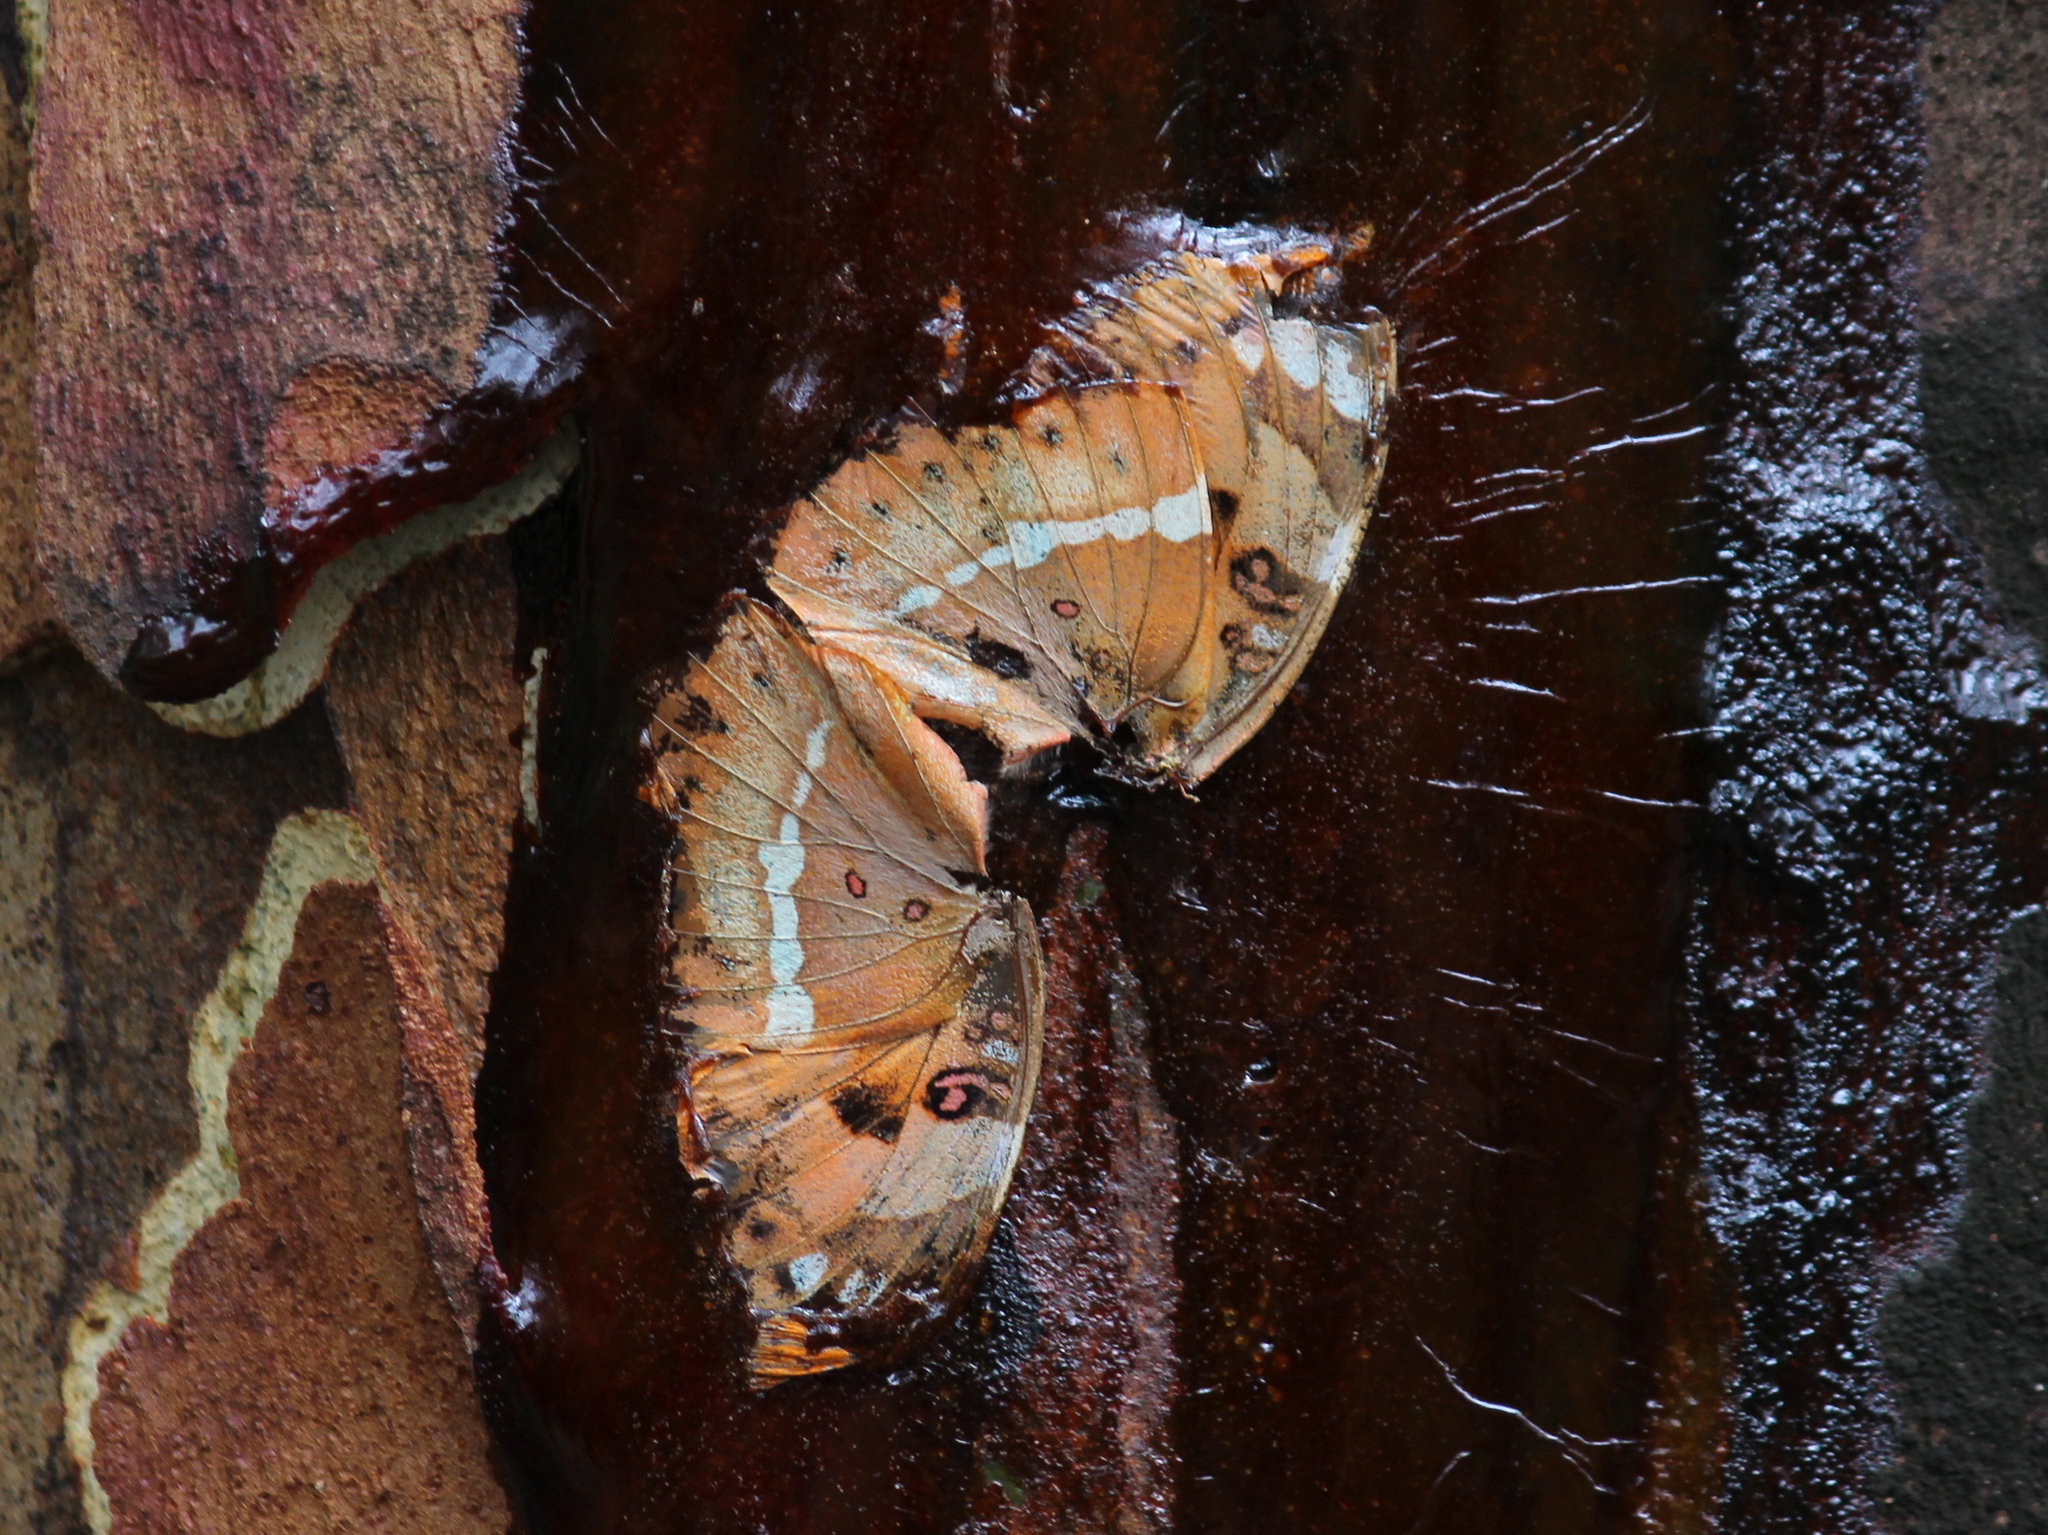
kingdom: Animalia
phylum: Arthropoda
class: Insecta
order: Lepidoptera
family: Nymphalidae
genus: Euthalia
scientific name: Euthalia nais
